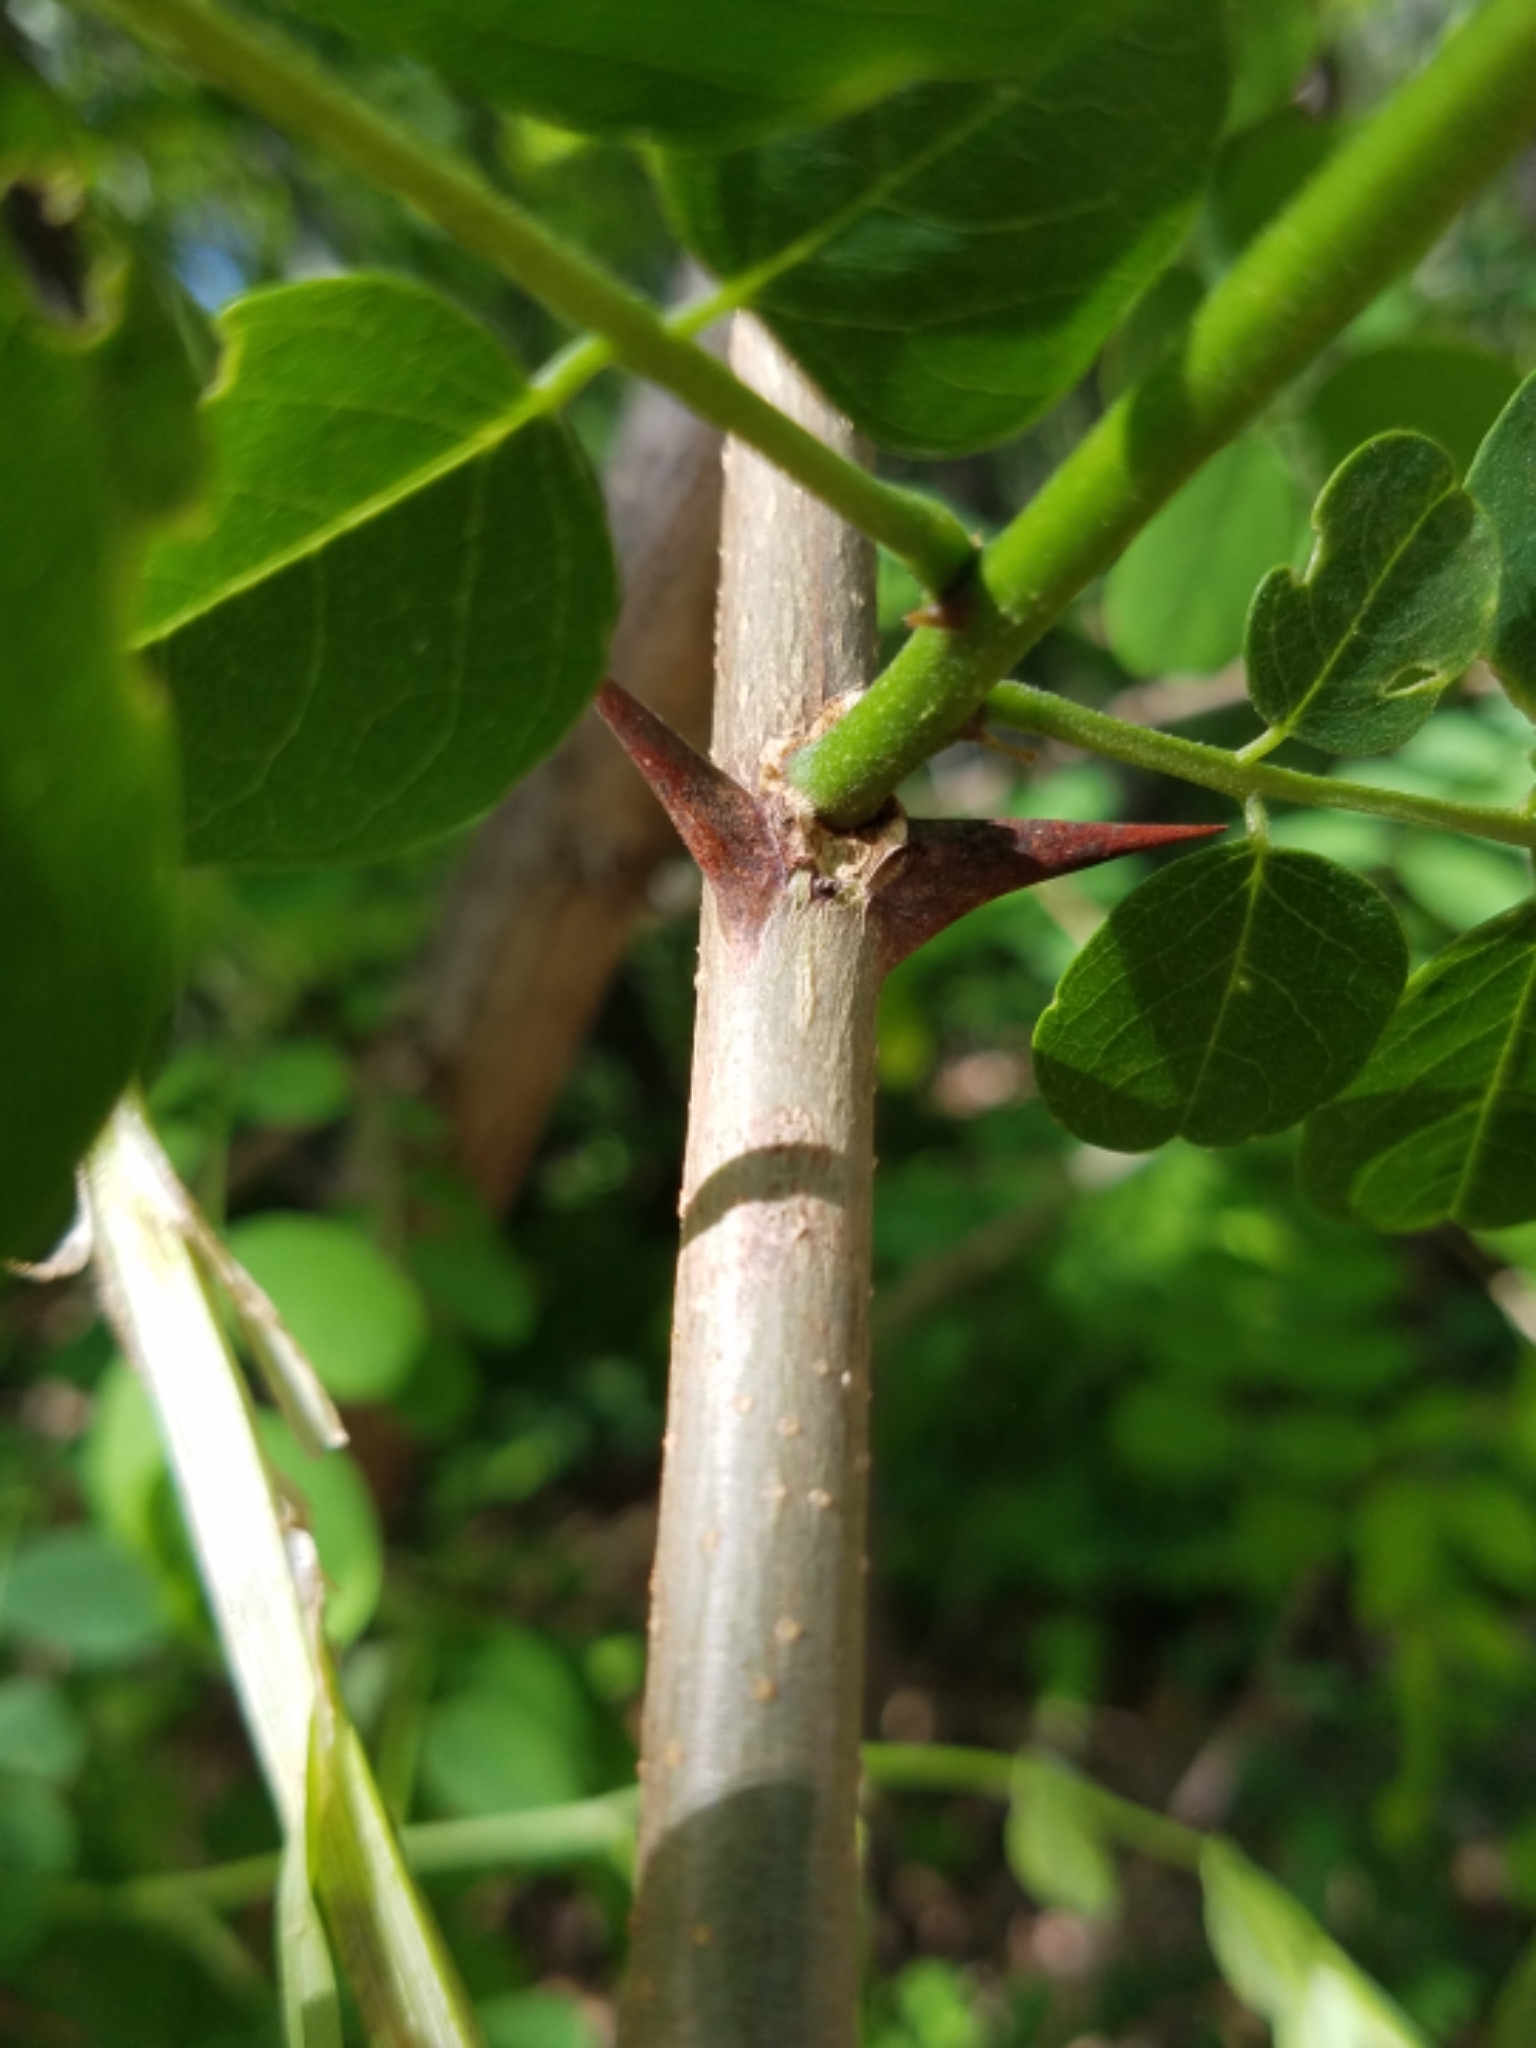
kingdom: Plantae
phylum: Tracheophyta
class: Magnoliopsida
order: Fabales
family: Fabaceae
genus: Robinia
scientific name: Robinia pseudoacacia
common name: Black locust
